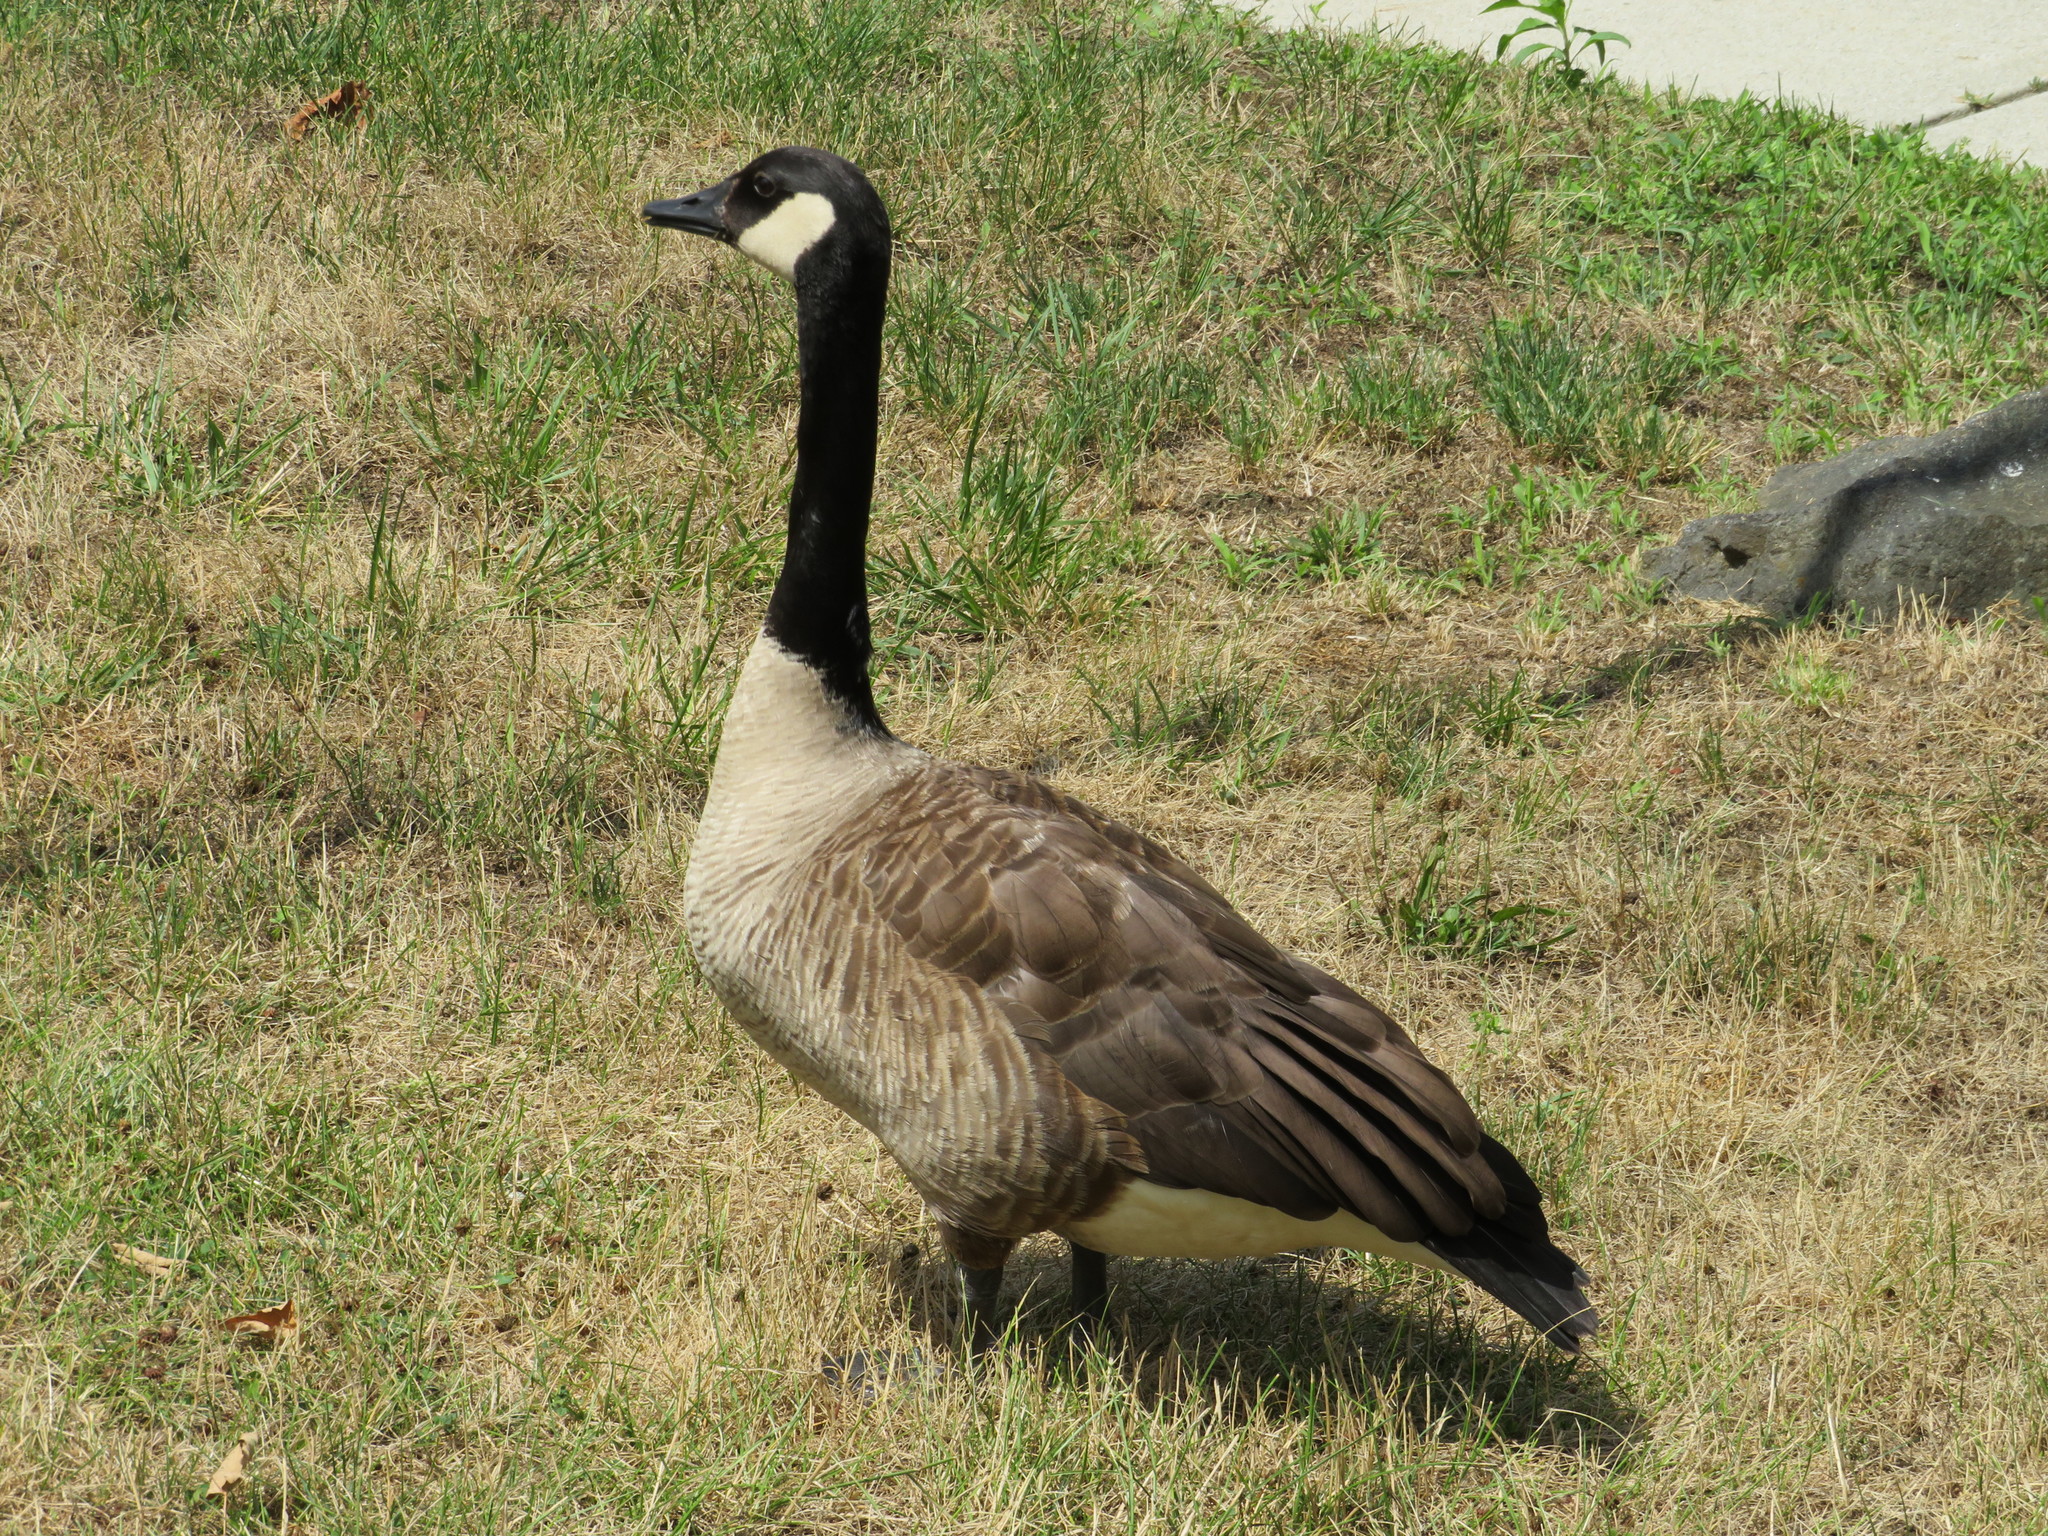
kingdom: Animalia
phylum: Chordata
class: Aves
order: Anseriformes
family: Anatidae
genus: Branta
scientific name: Branta canadensis
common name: Canada goose
